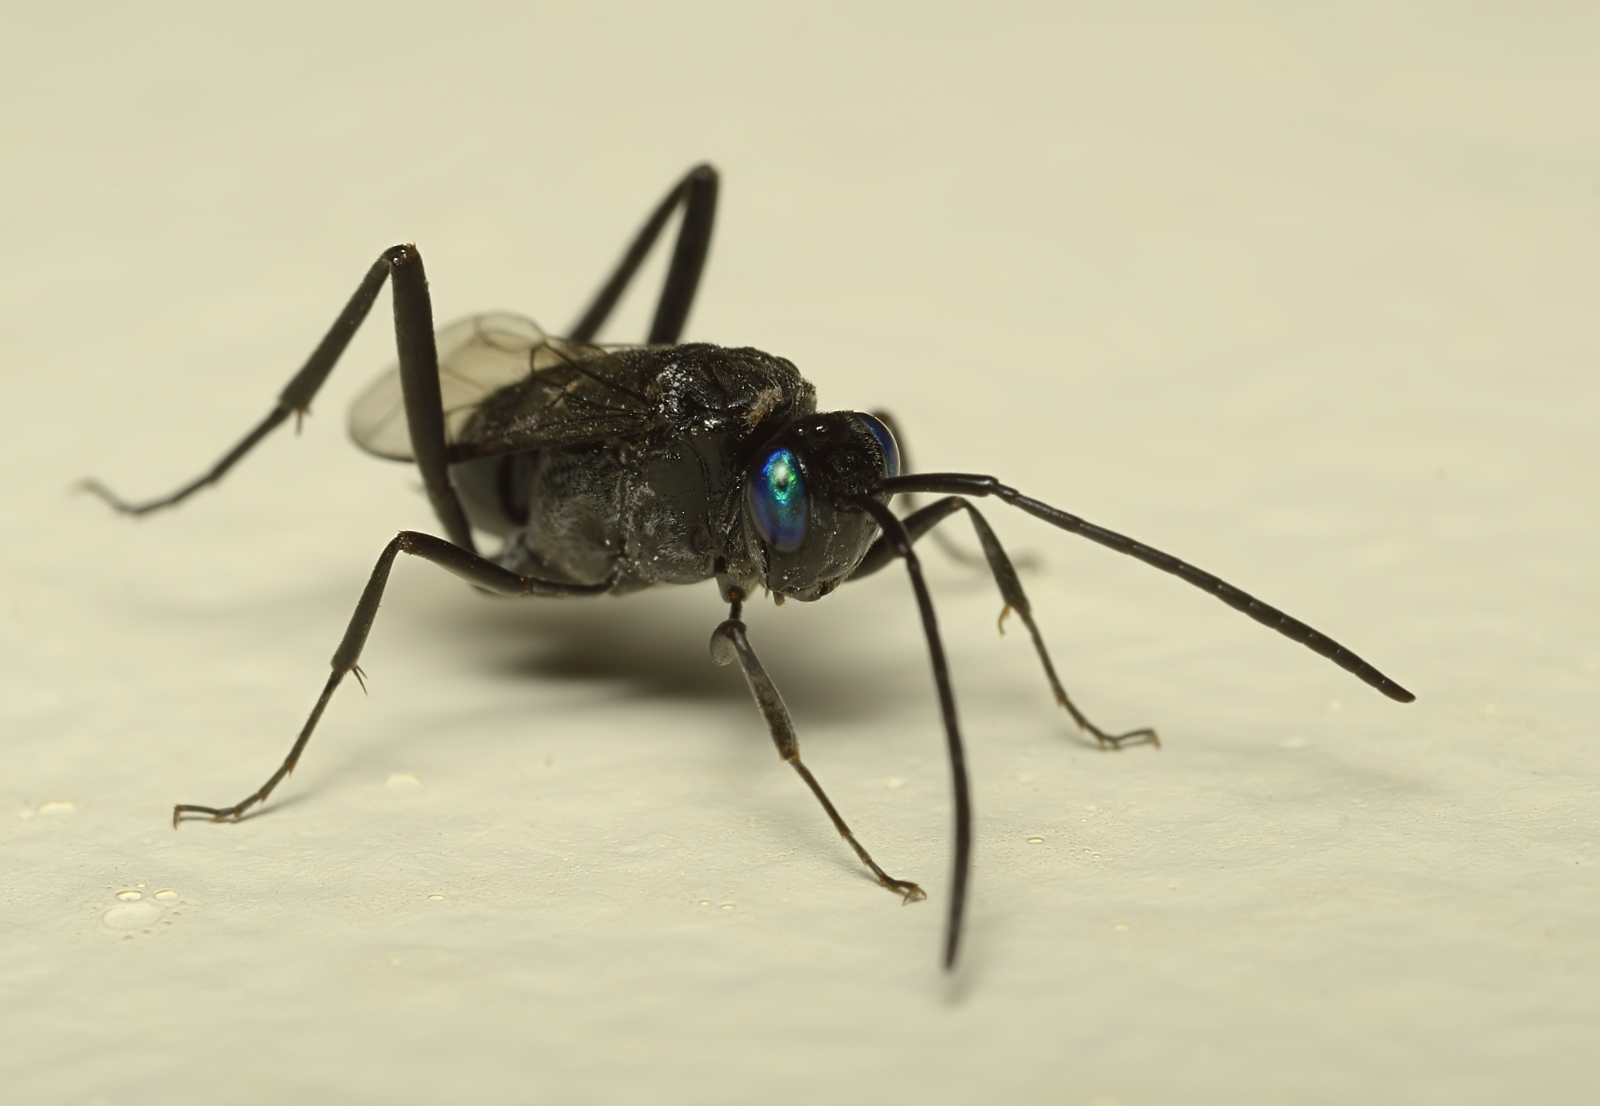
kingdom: Animalia
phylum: Arthropoda
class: Insecta
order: Hymenoptera
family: Evaniidae
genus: Evania
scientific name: Evania appendigaster
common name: Ensign wasp
